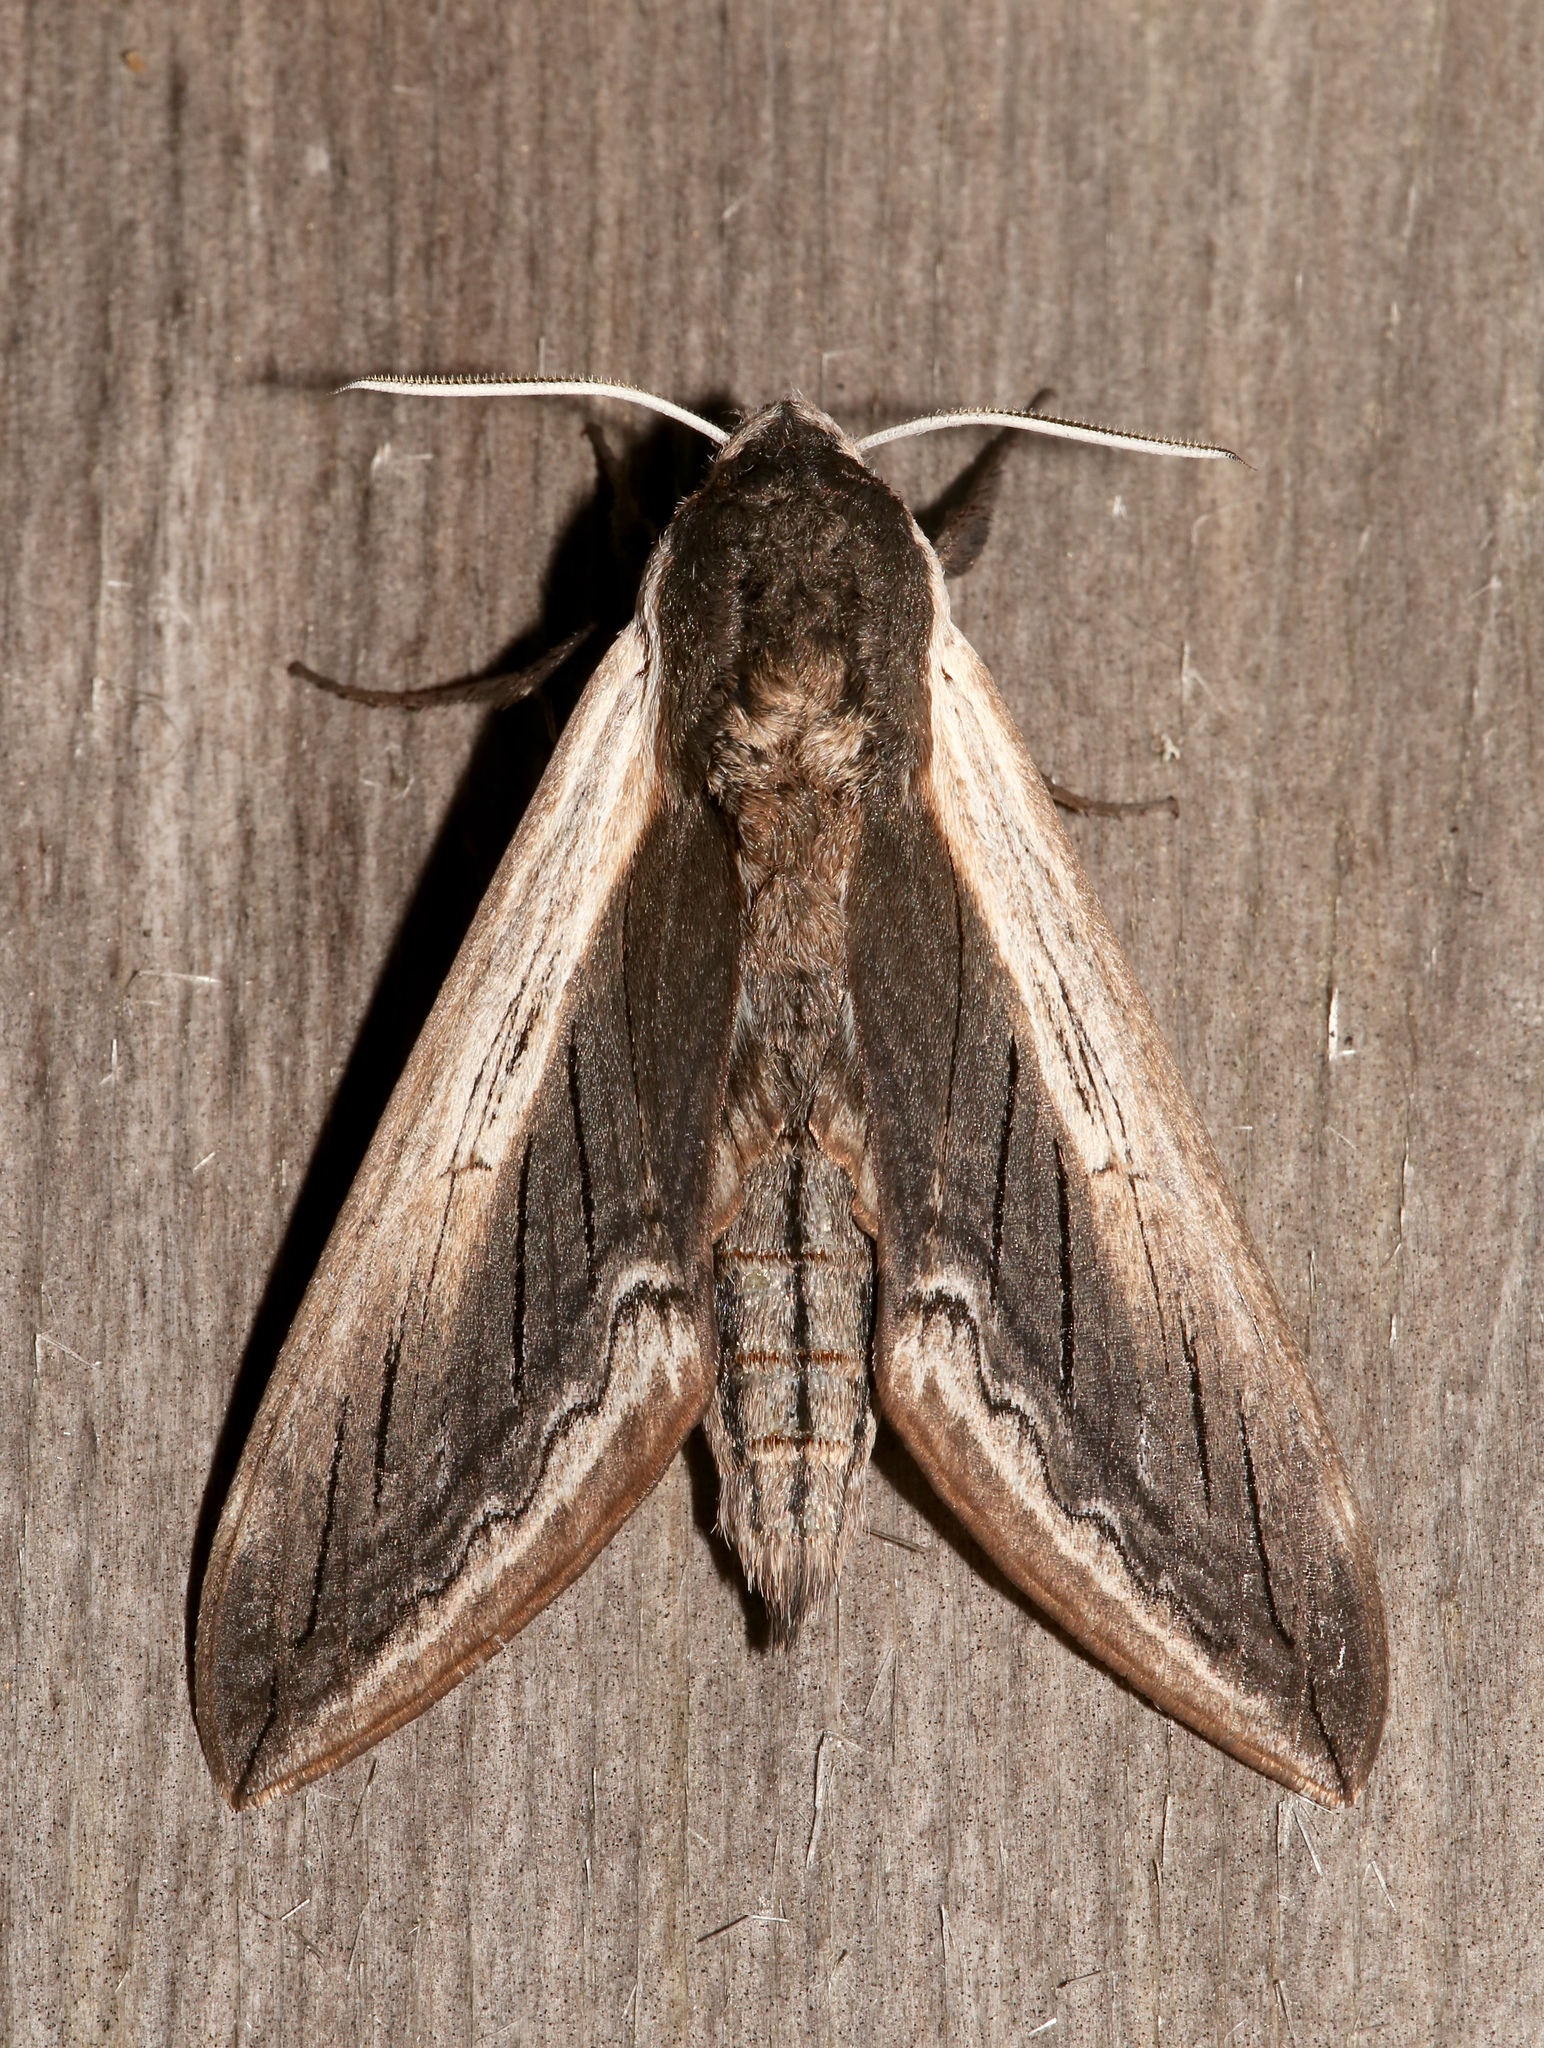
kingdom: Animalia
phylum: Arthropoda
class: Insecta
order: Lepidoptera
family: Sphingidae
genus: Sphinx
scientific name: Sphinx drupiferarum
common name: Wild cherry sphinx
